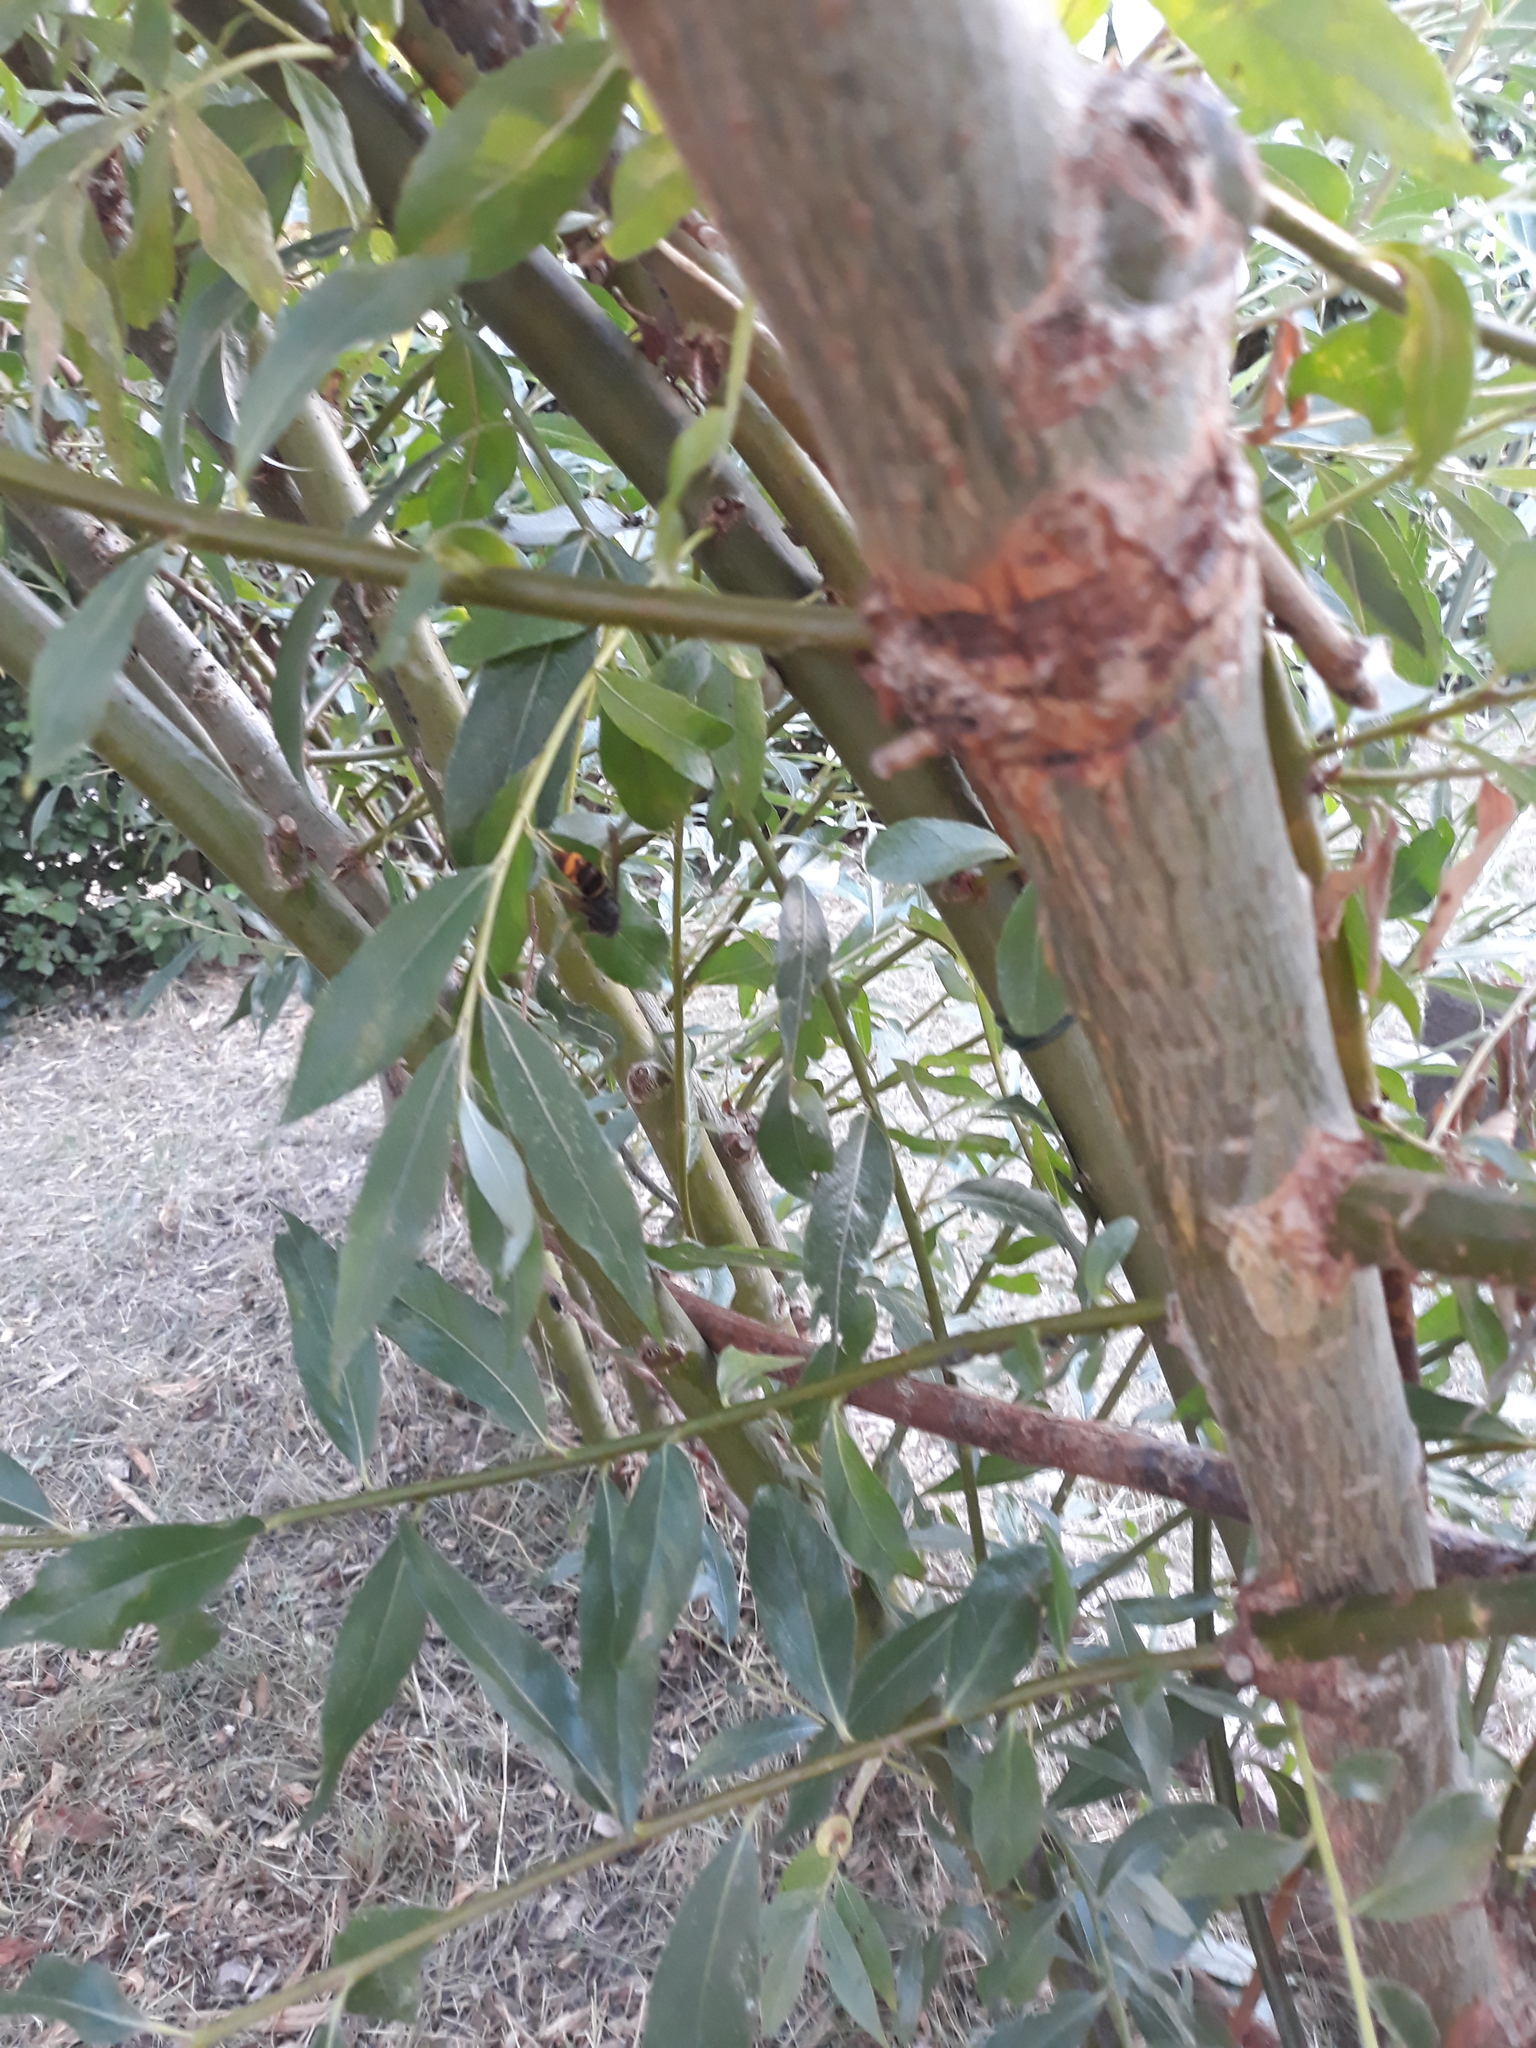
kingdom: Animalia
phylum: Arthropoda
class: Insecta
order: Hymenoptera
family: Vespidae
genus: Vespa
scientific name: Vespa velutina
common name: Asian hornet
